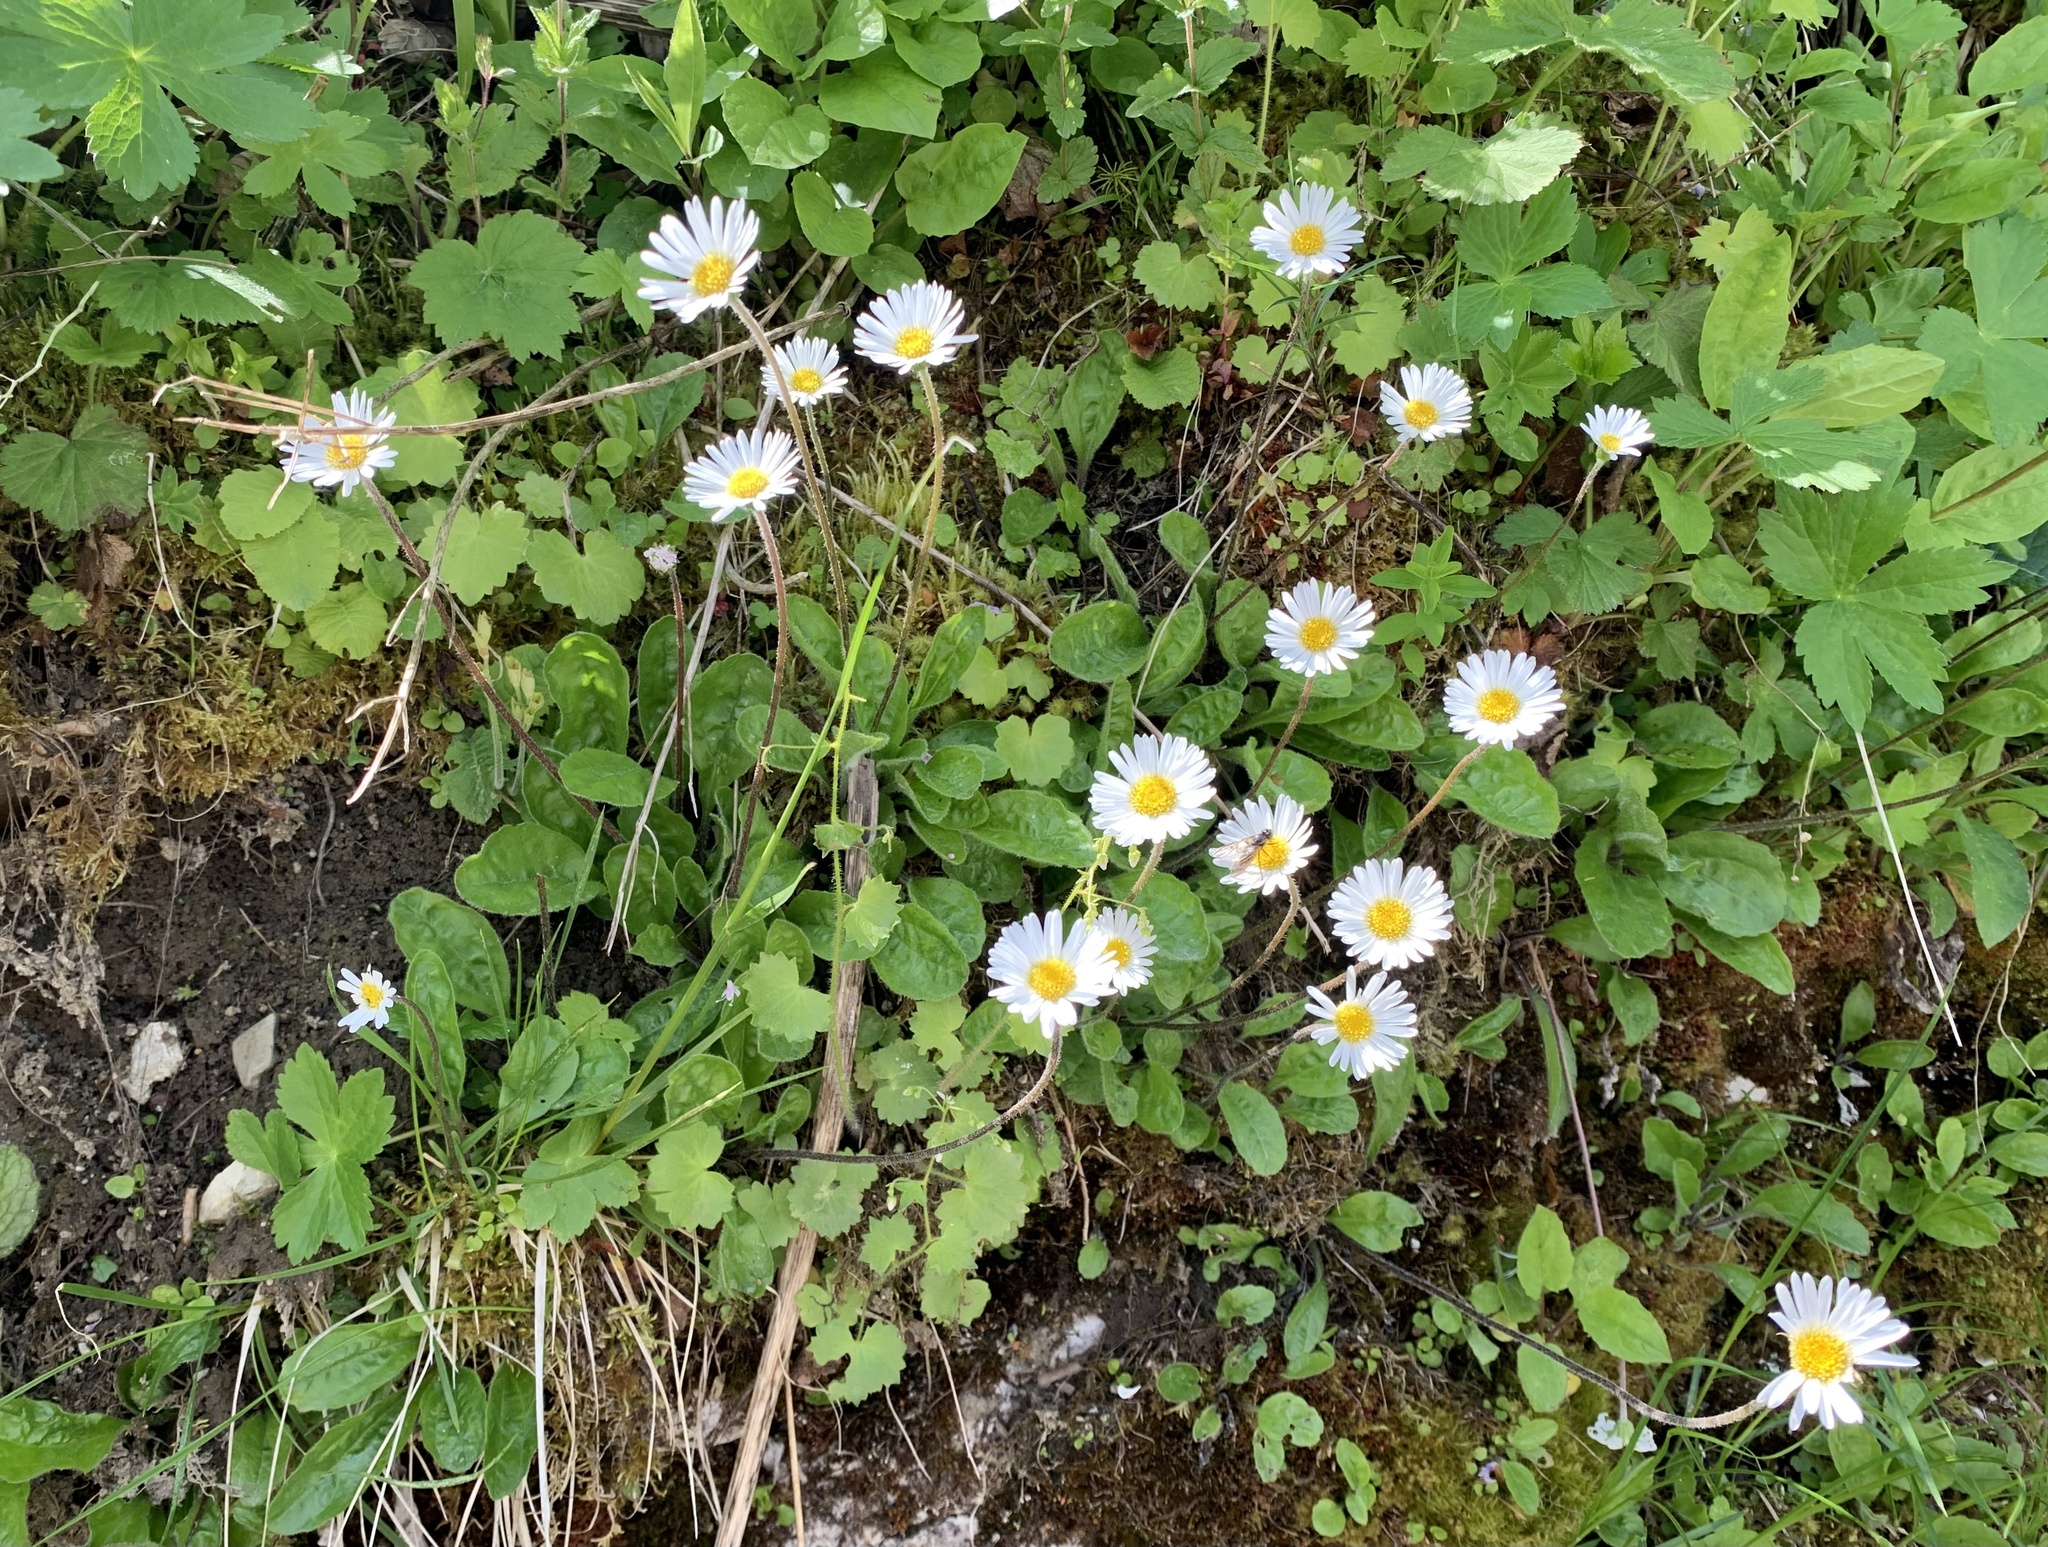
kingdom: Plantae
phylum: Tracheophyta
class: Magnoliopsida
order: Asterales
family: Asteraceae
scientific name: Asteraceae
